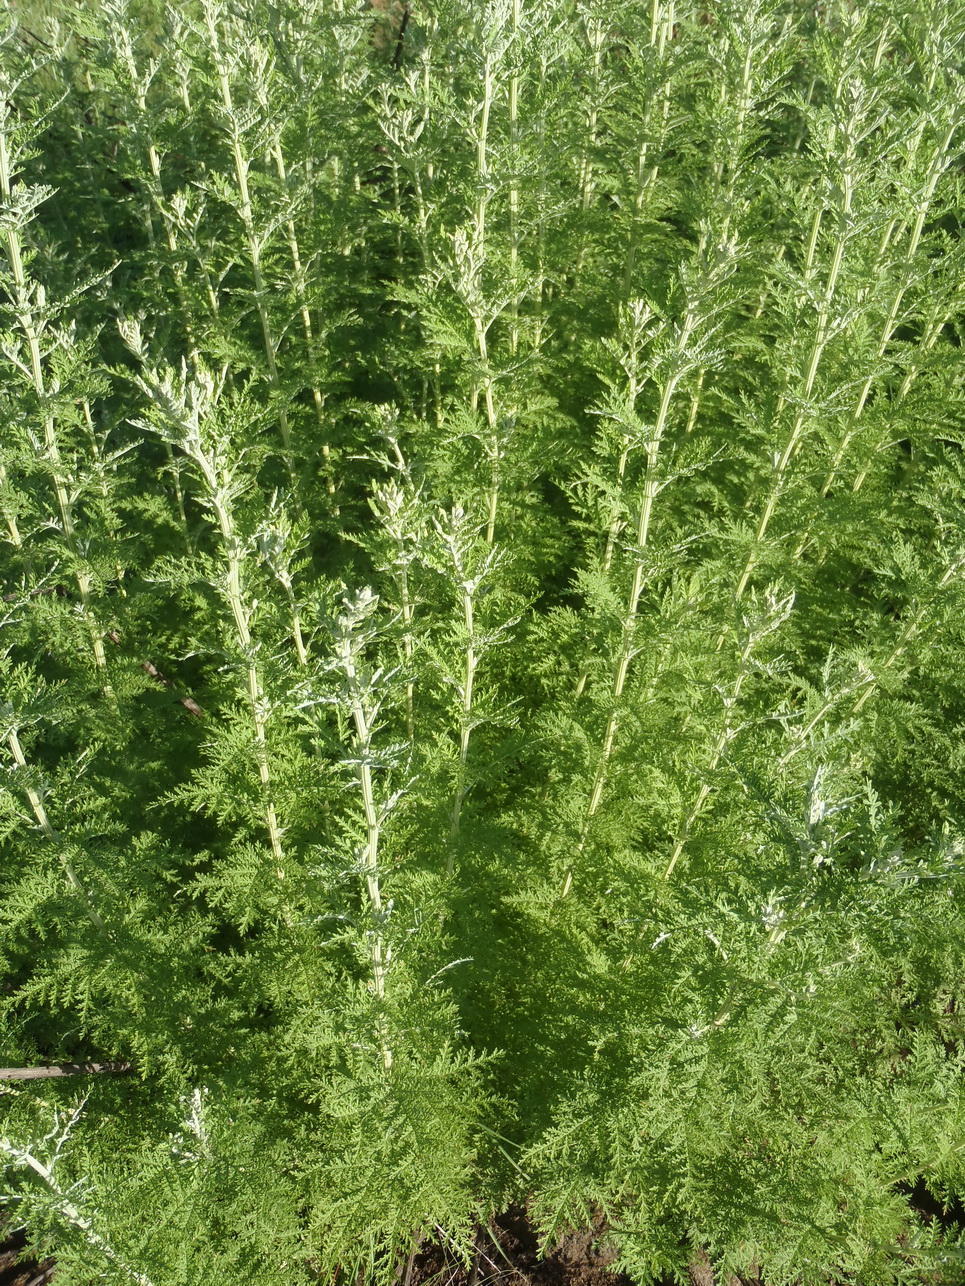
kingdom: Plantae
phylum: Tracheophyta
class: Magnoliopsida
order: Asterales
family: Asteraceae
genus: Artemisia
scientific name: Artemisia afra
